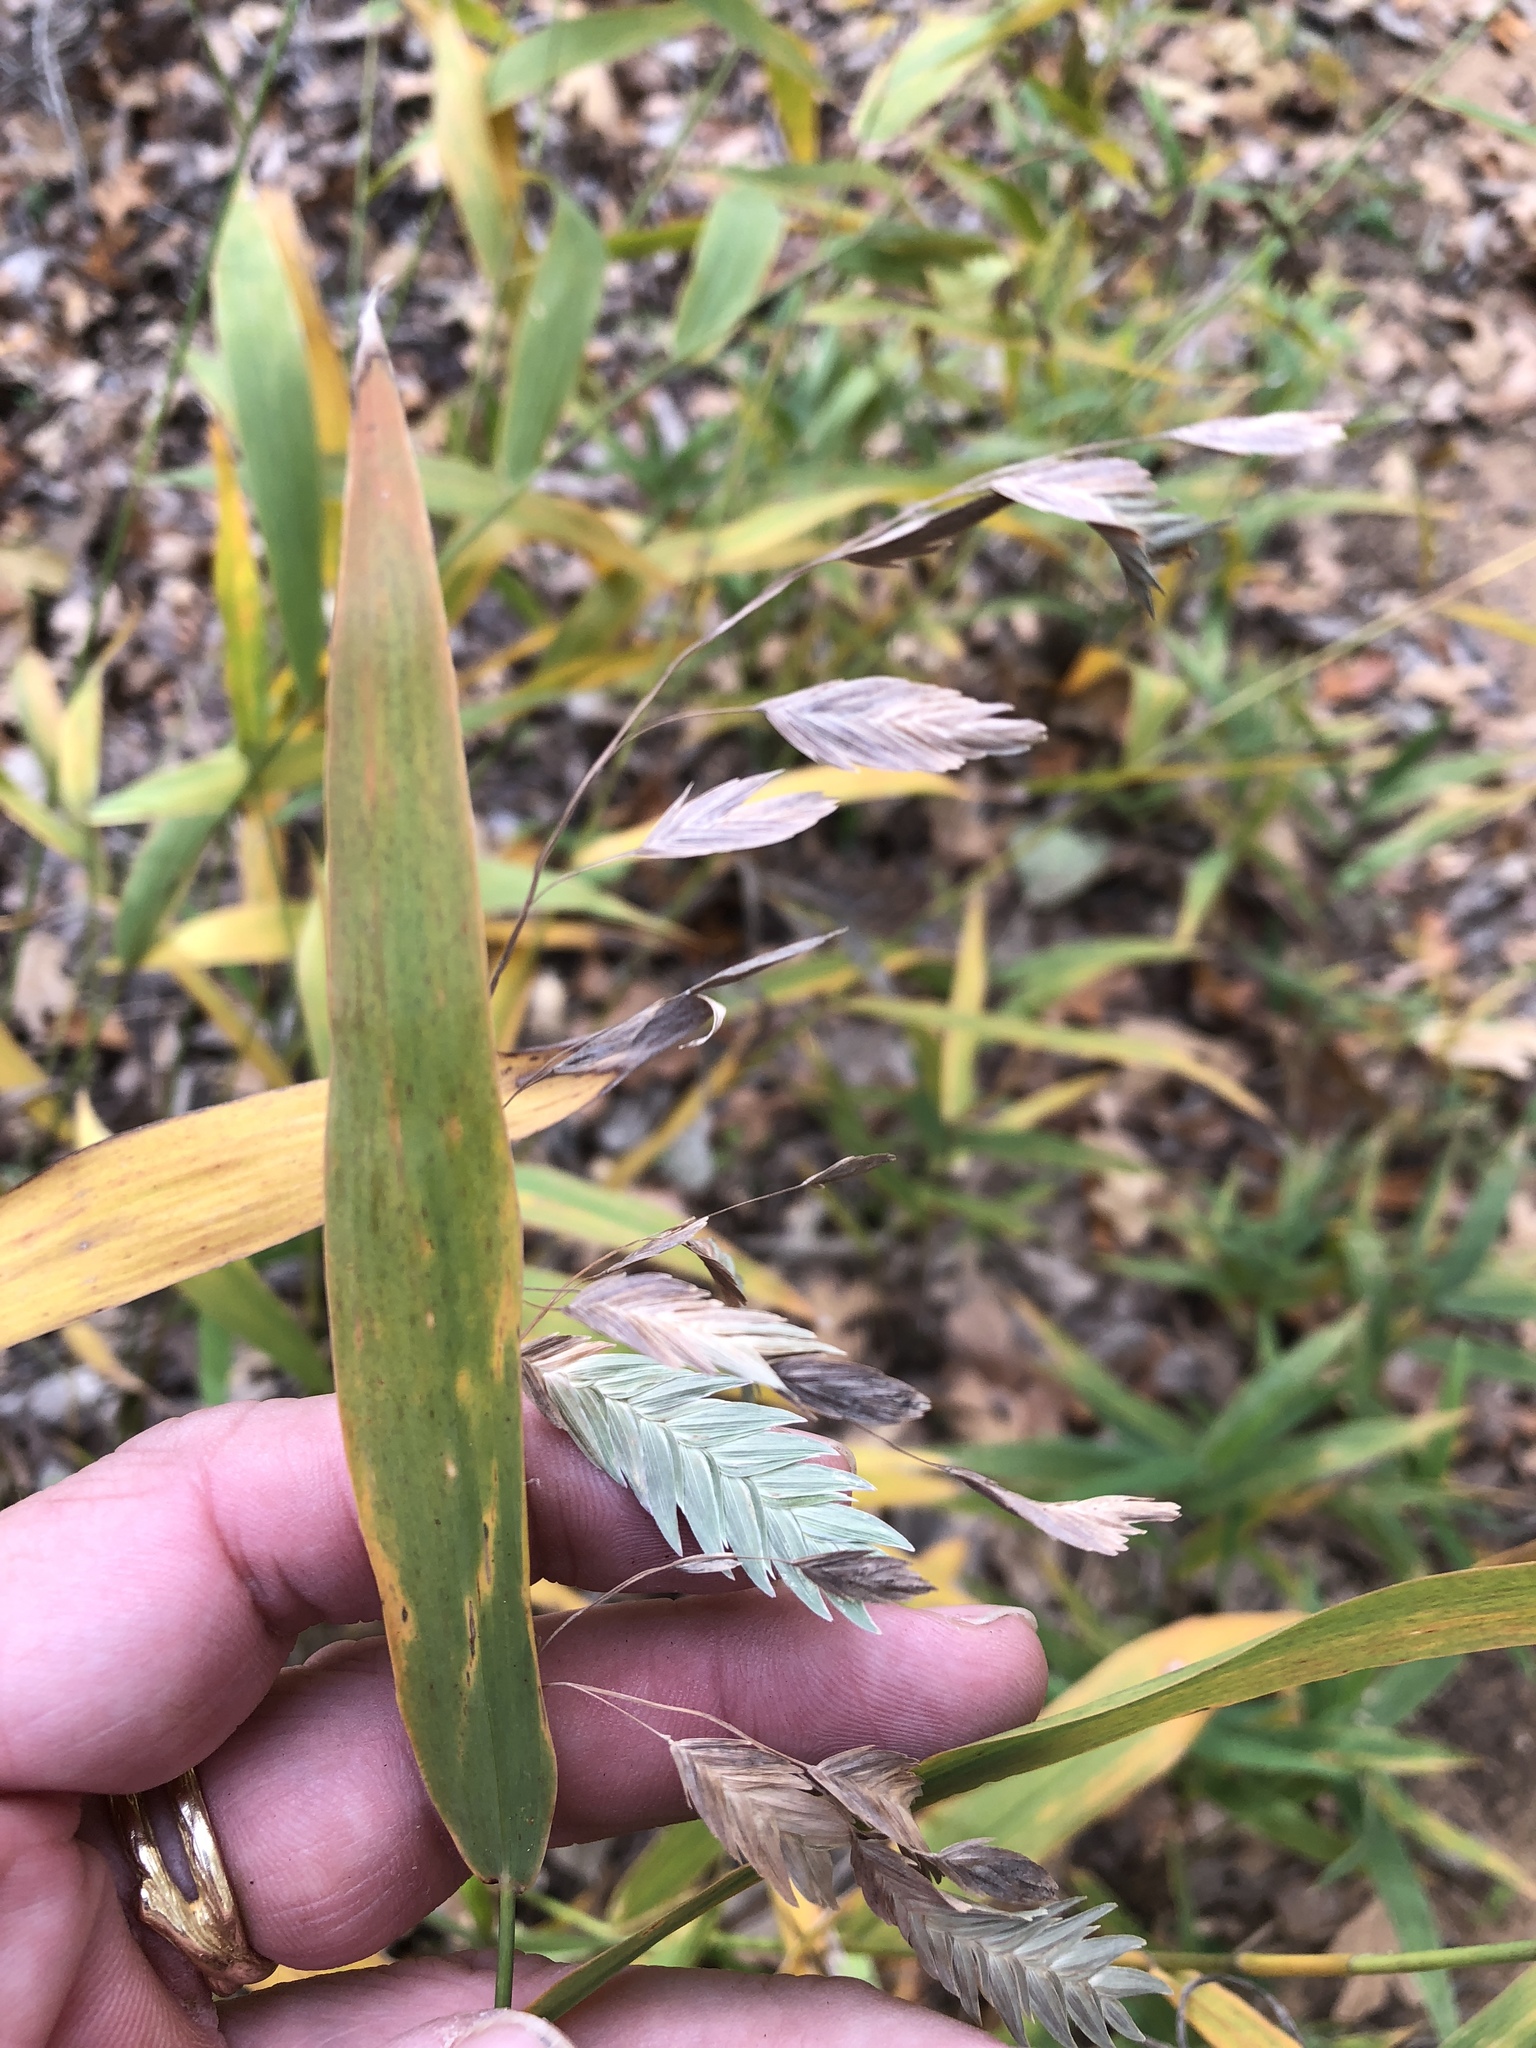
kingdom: Plantae
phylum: Tracheophyta
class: Liliopsida
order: Poales
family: Poaceae
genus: Chasmanthium
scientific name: Chasmanthium latifolium
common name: Broad-leaved chasmanthium
